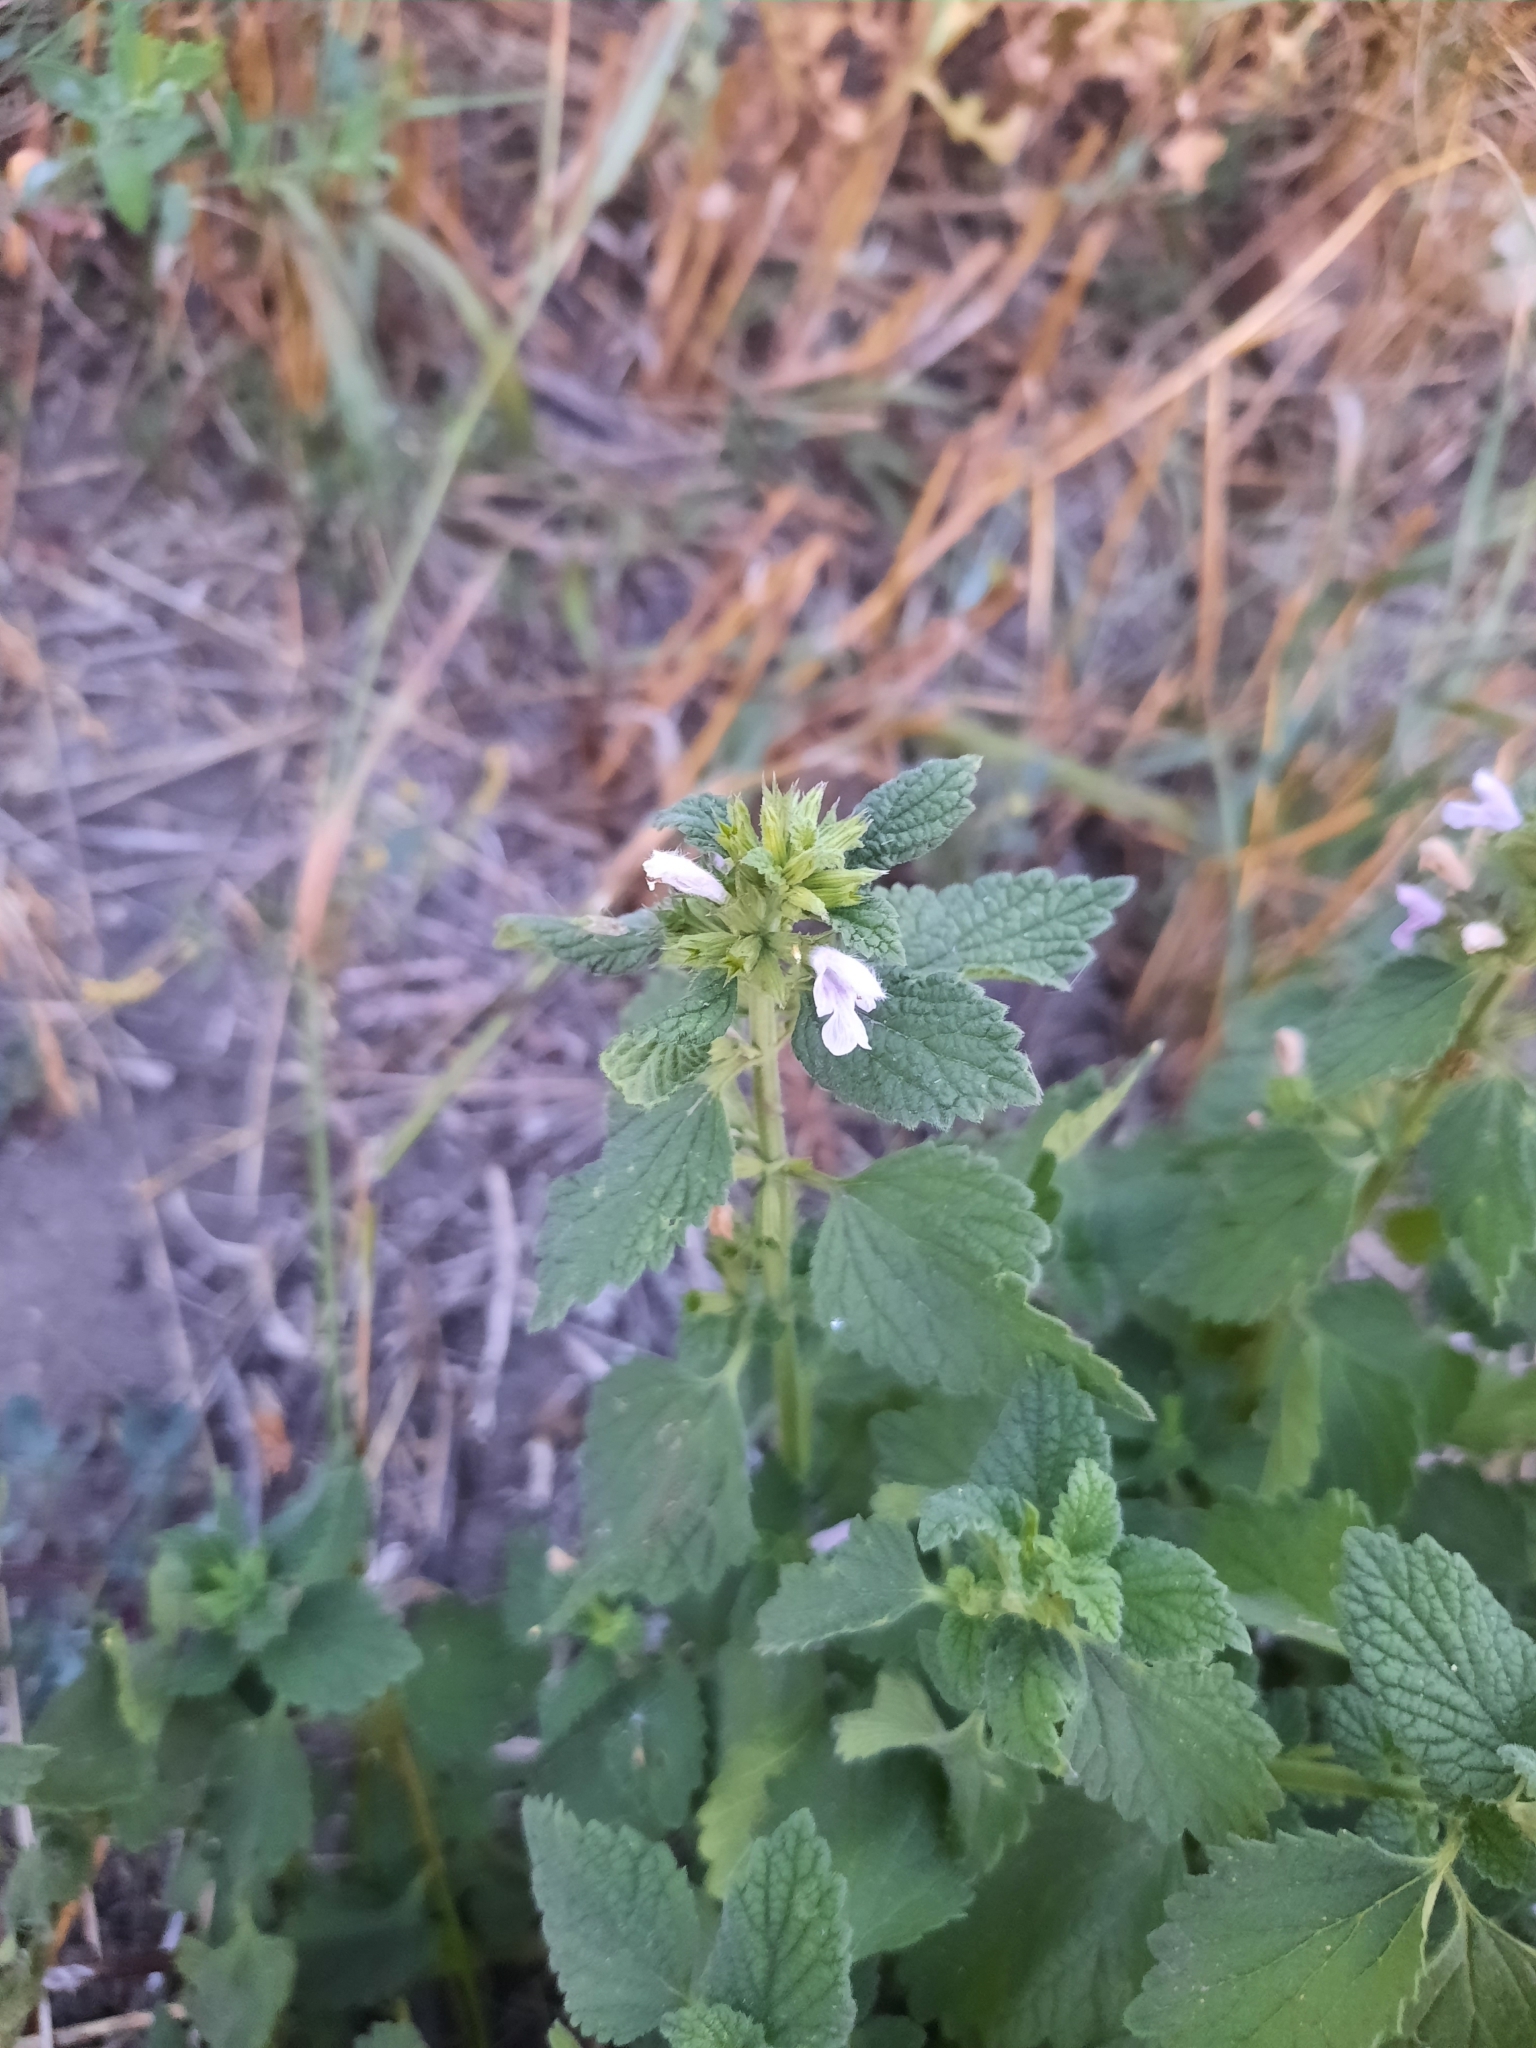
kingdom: Plantae
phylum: Tracheophyta
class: Magnoliopsida
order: Lamiales
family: Lamiaceae
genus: Ballota
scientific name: Ballota nigra
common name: Black horehound
